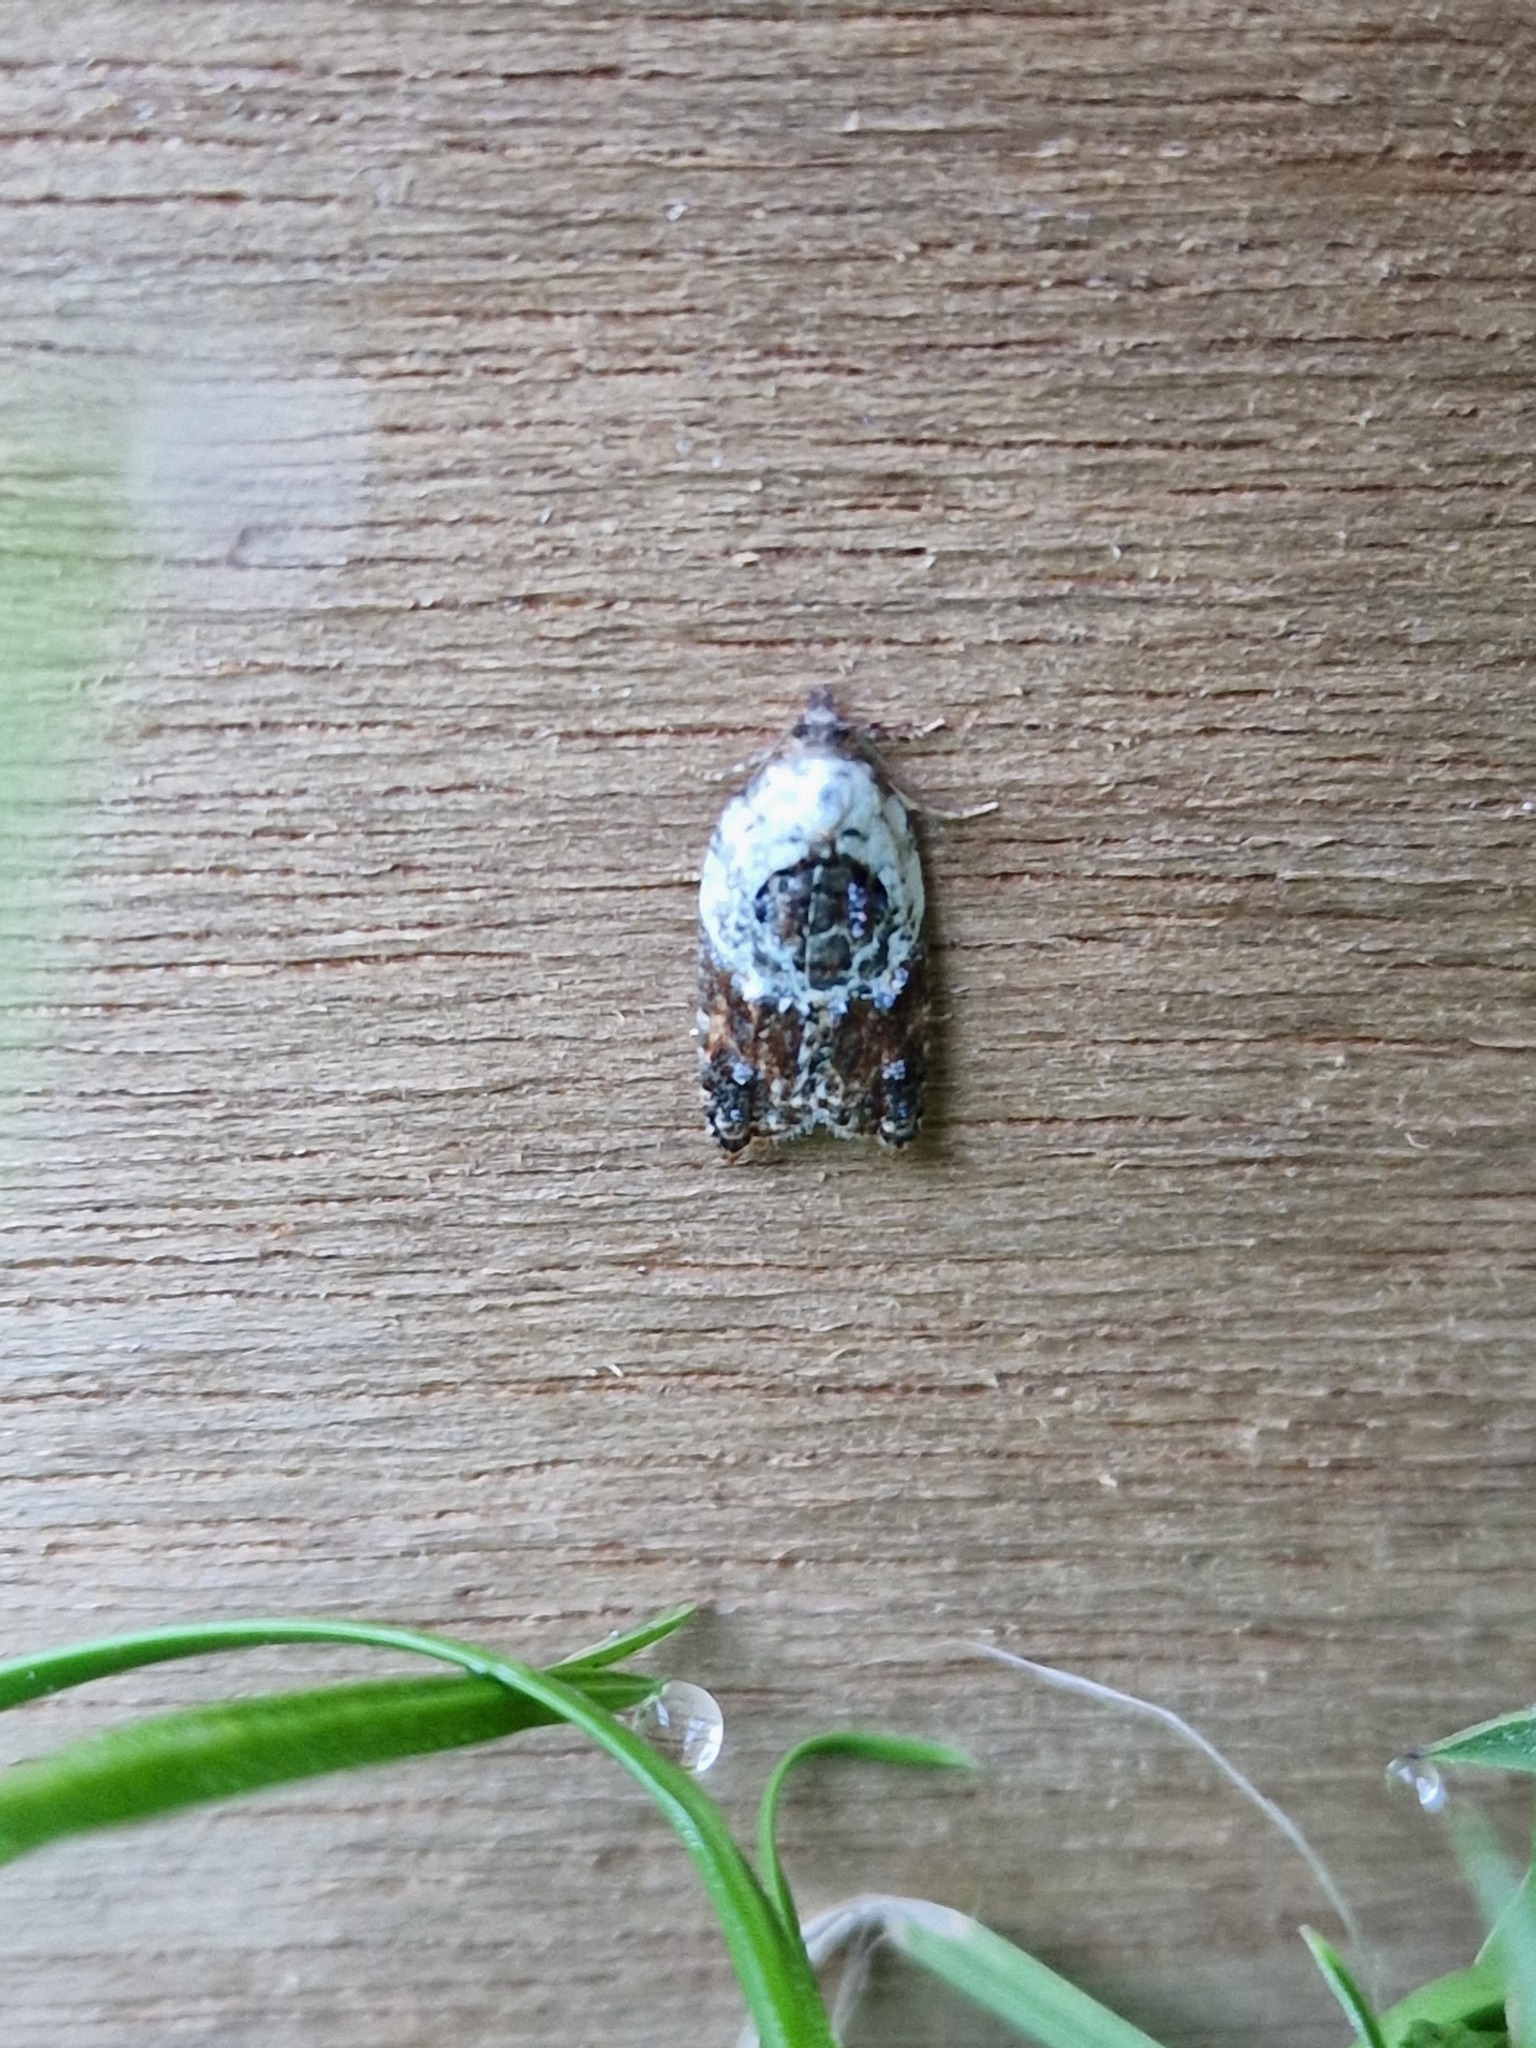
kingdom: Animalia
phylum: Arthropoda
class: Insecta
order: Lepidoptera
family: Tortricidae
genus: Acleris
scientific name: Acleris variegana
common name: Garden rose tortrix
